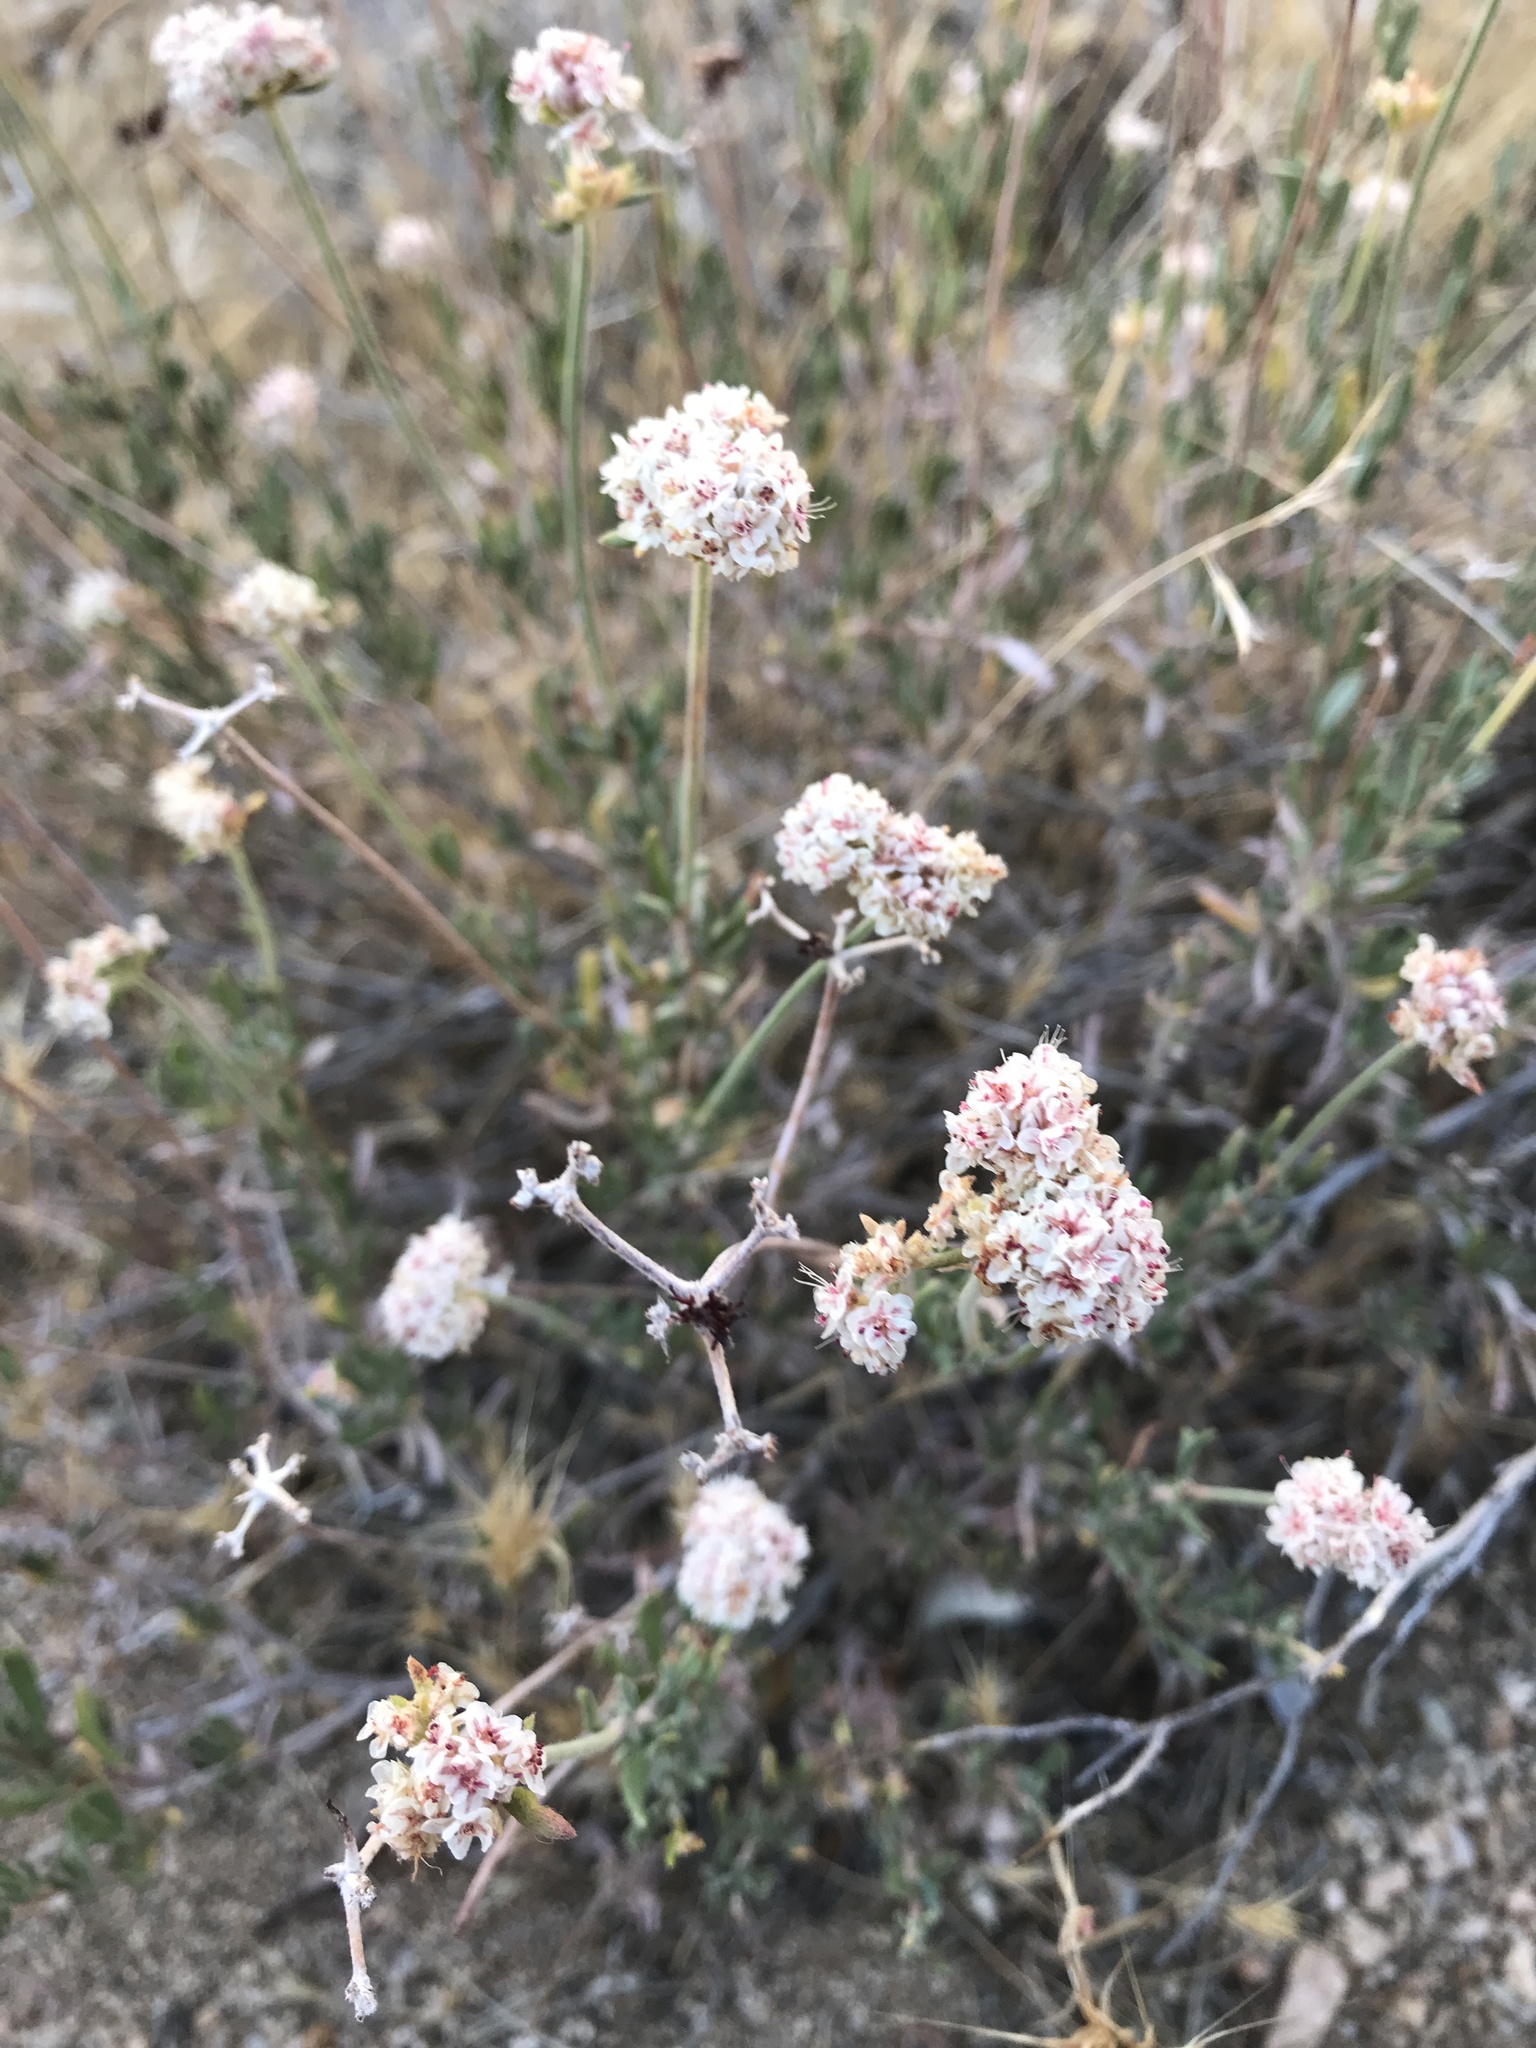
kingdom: Plantae
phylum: Tracheophyta
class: Magnoliopsida
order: Caryophyllales
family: Polygonaceae
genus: Eriogonum
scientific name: Eriogonum fasciculatum
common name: California wild buckwheat
